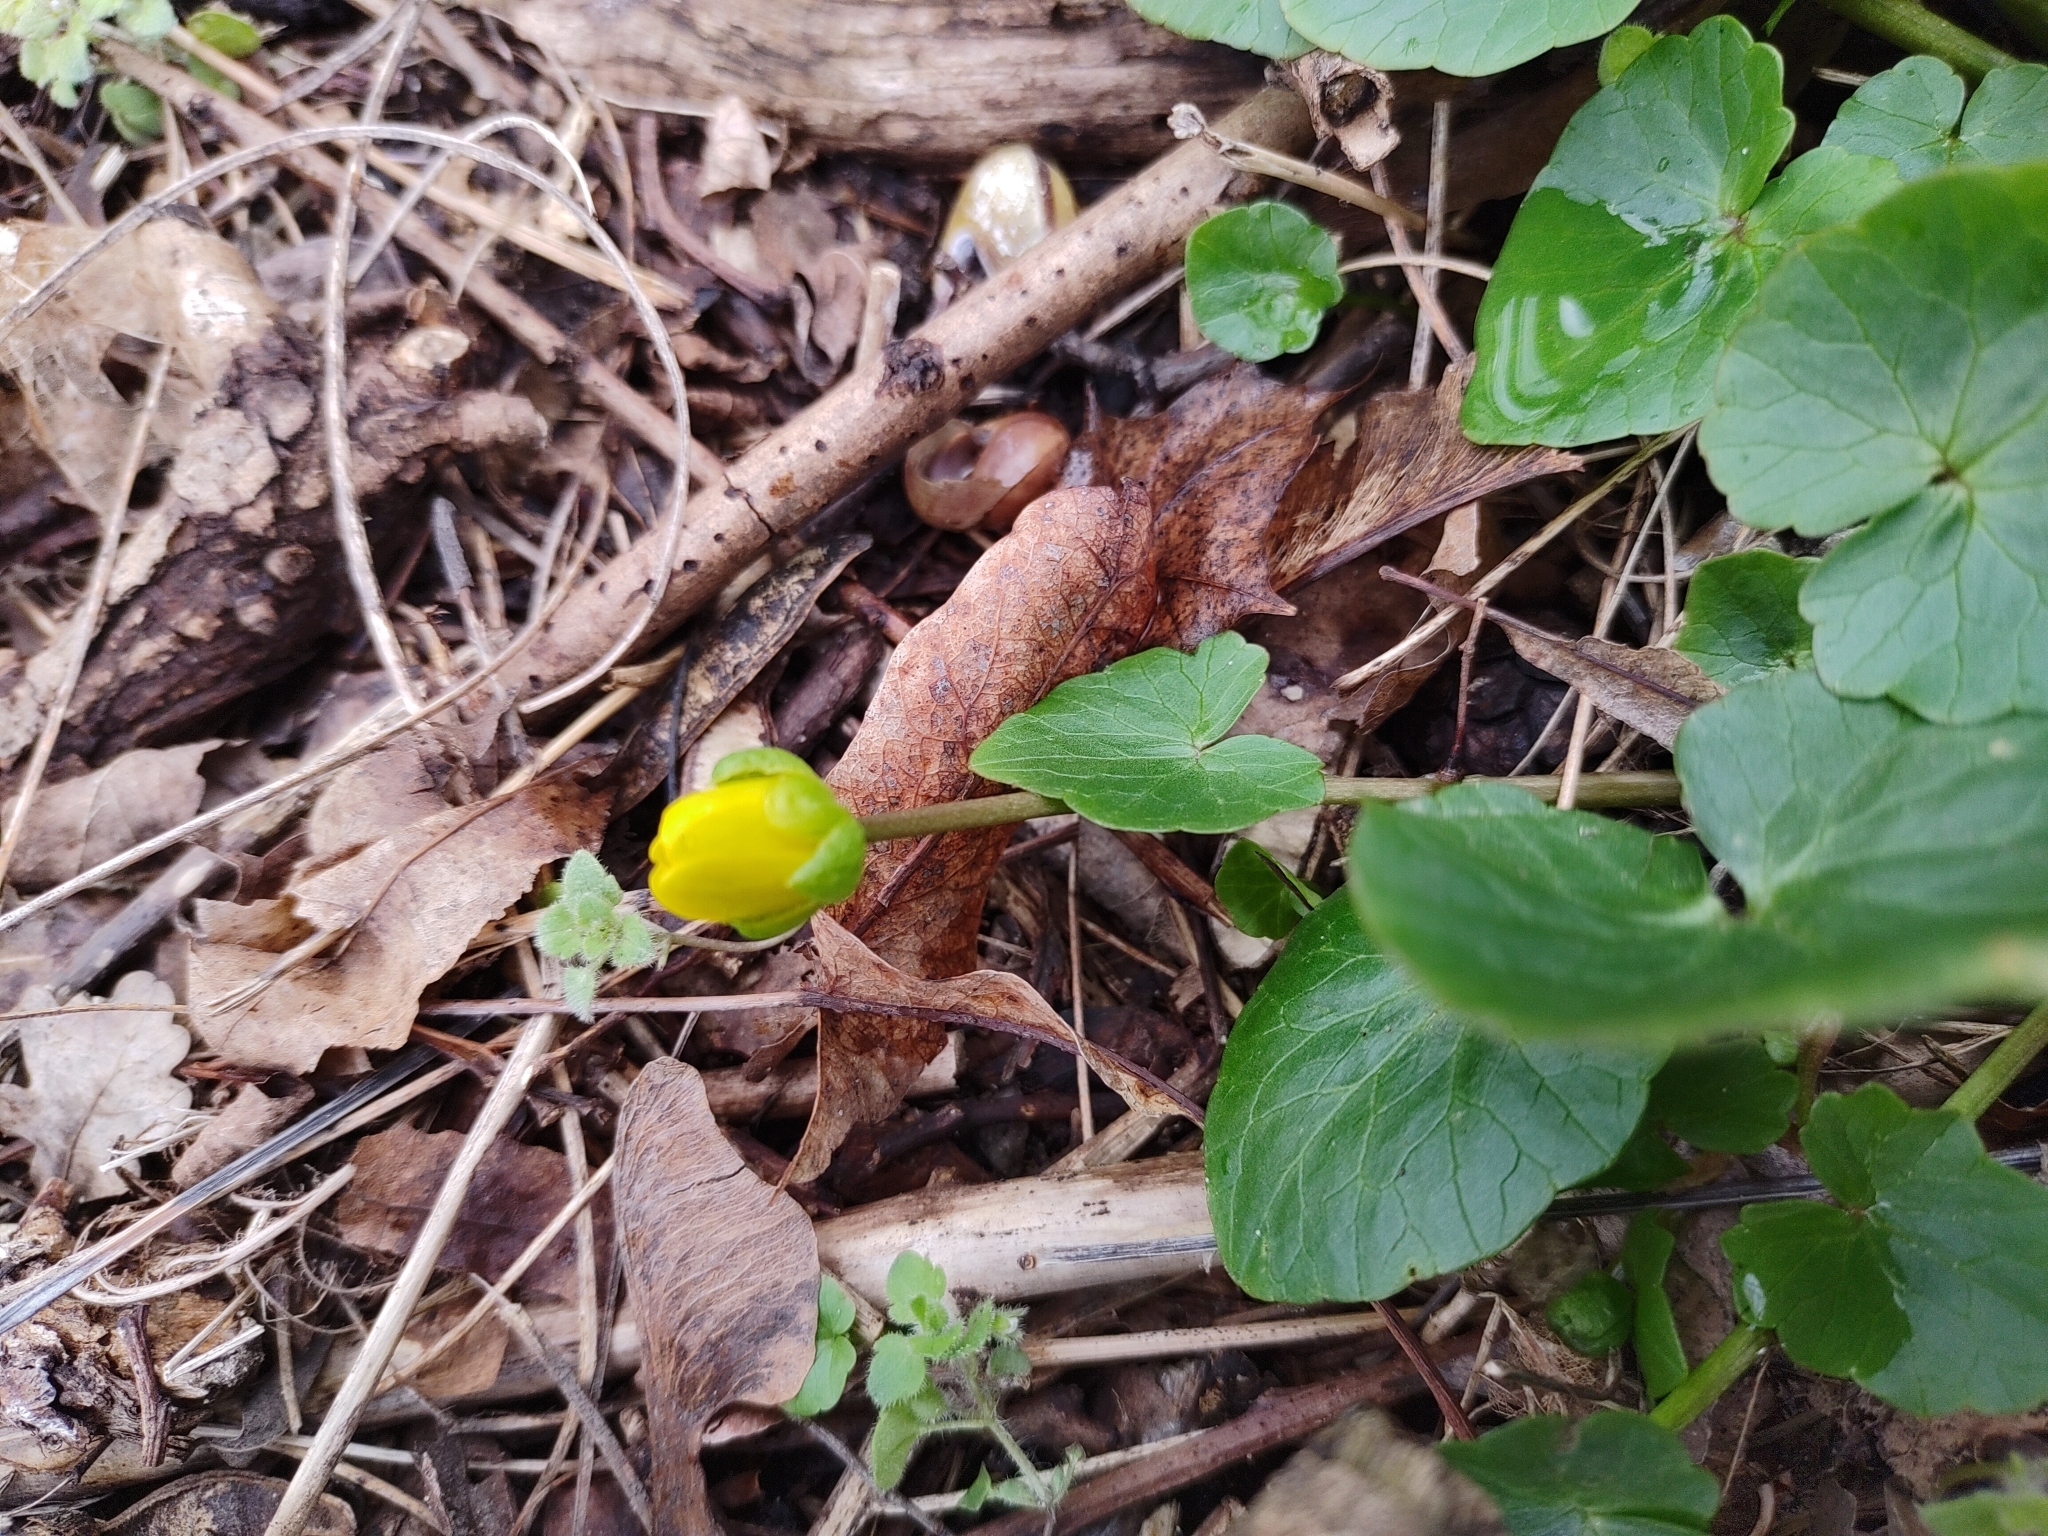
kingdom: Plantae
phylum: Tracheophyta
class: Magnoliopsida
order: Ranunculales
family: Ranunculaceae
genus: Ficaria
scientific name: Ficaria verna
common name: Lesser celandine
